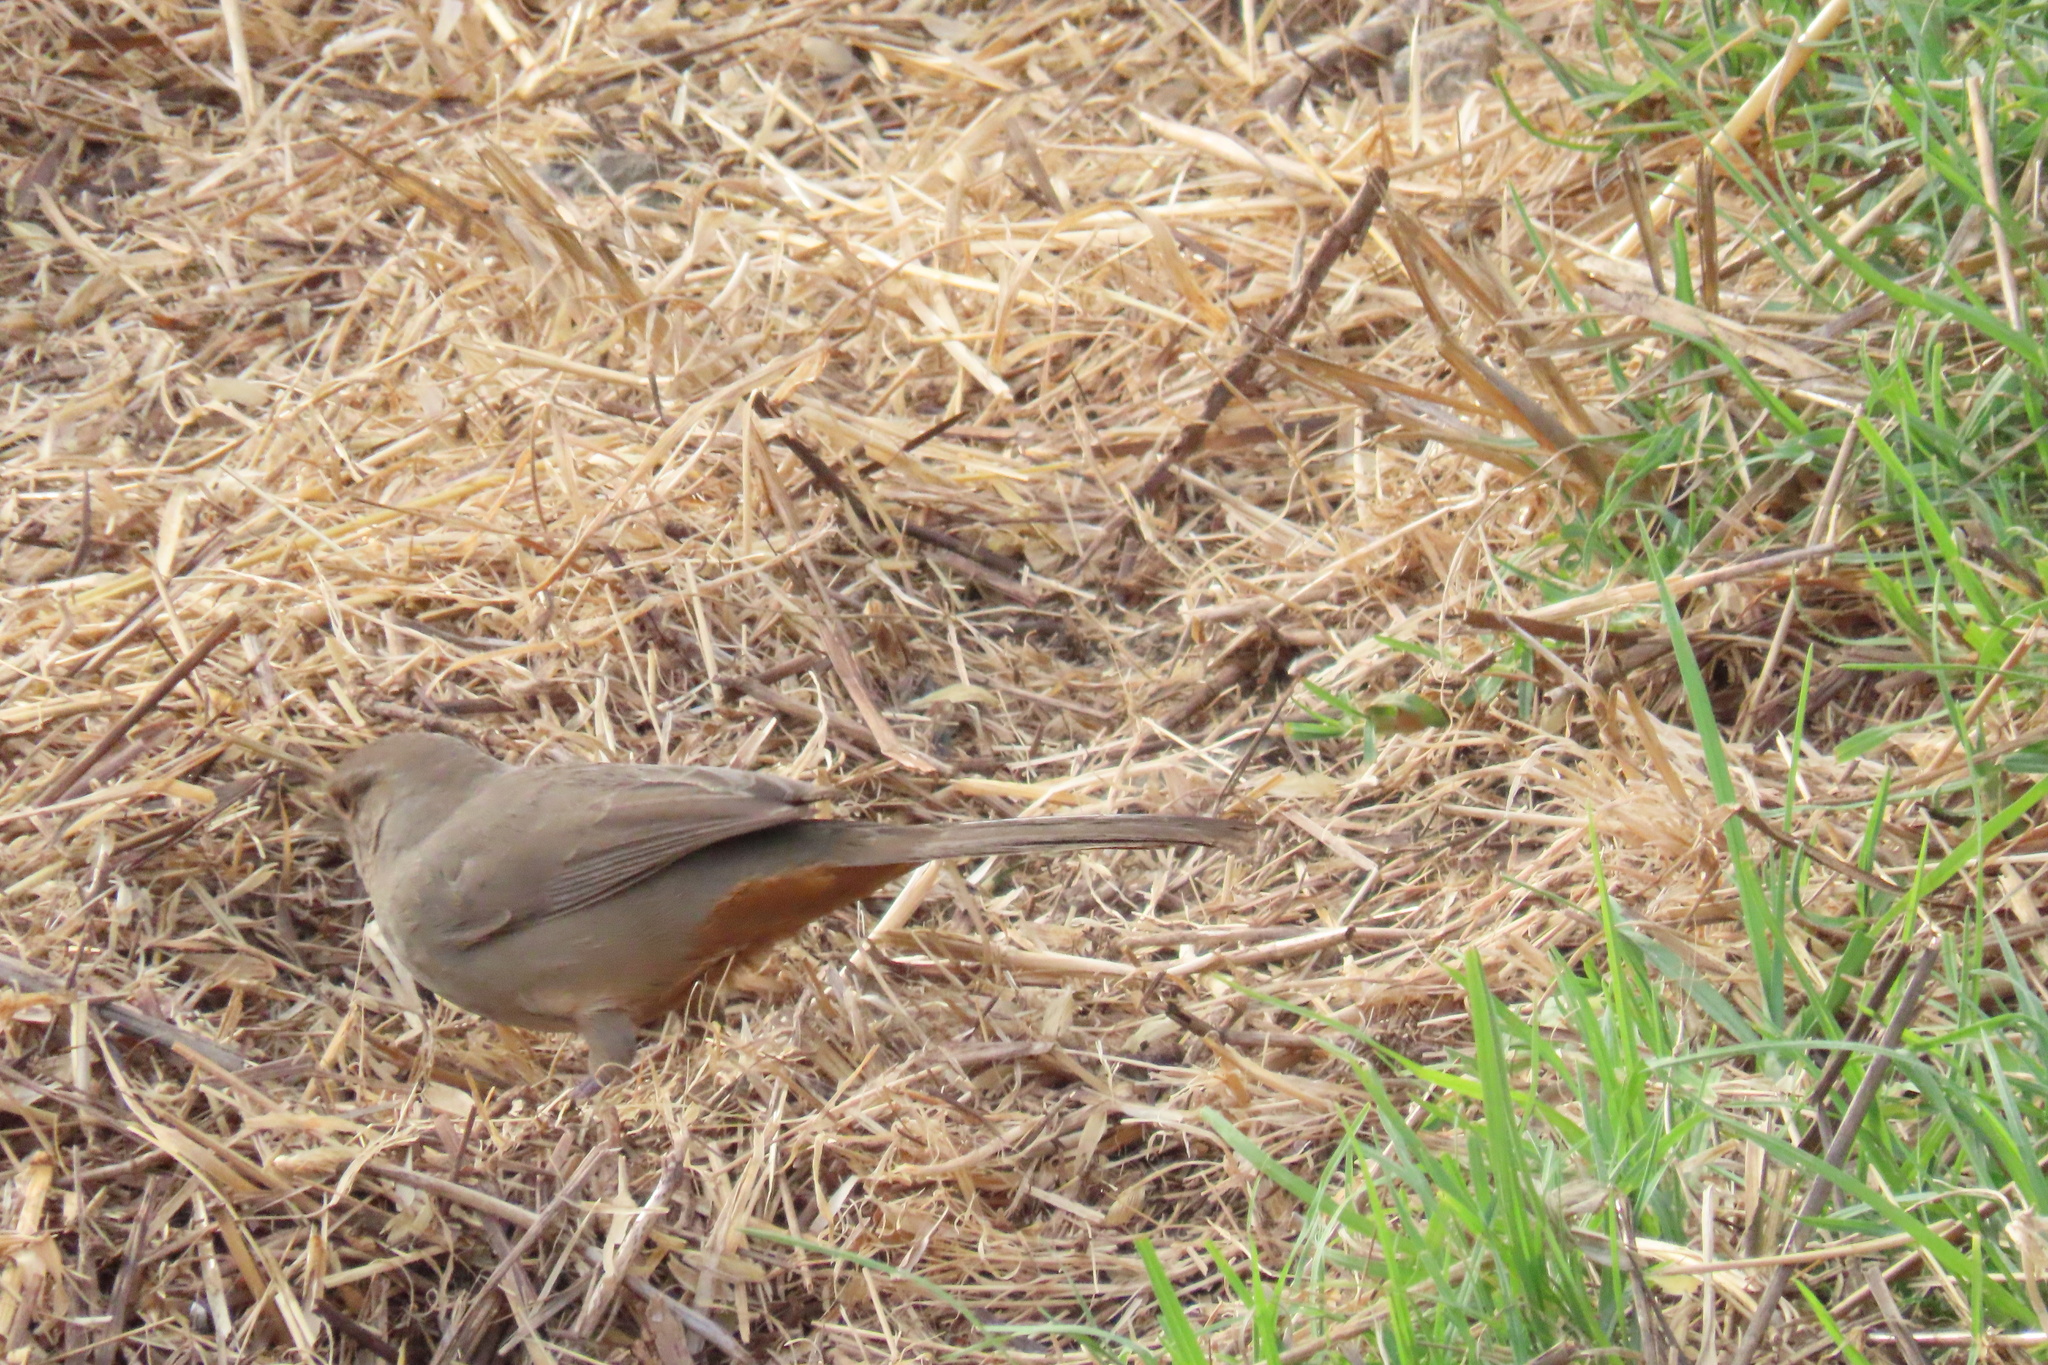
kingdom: Animalia
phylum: Chordata
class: Aves
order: Passeriformes
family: Passerellidae
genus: Melozone
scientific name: Melozone crissalis
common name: California towhee
